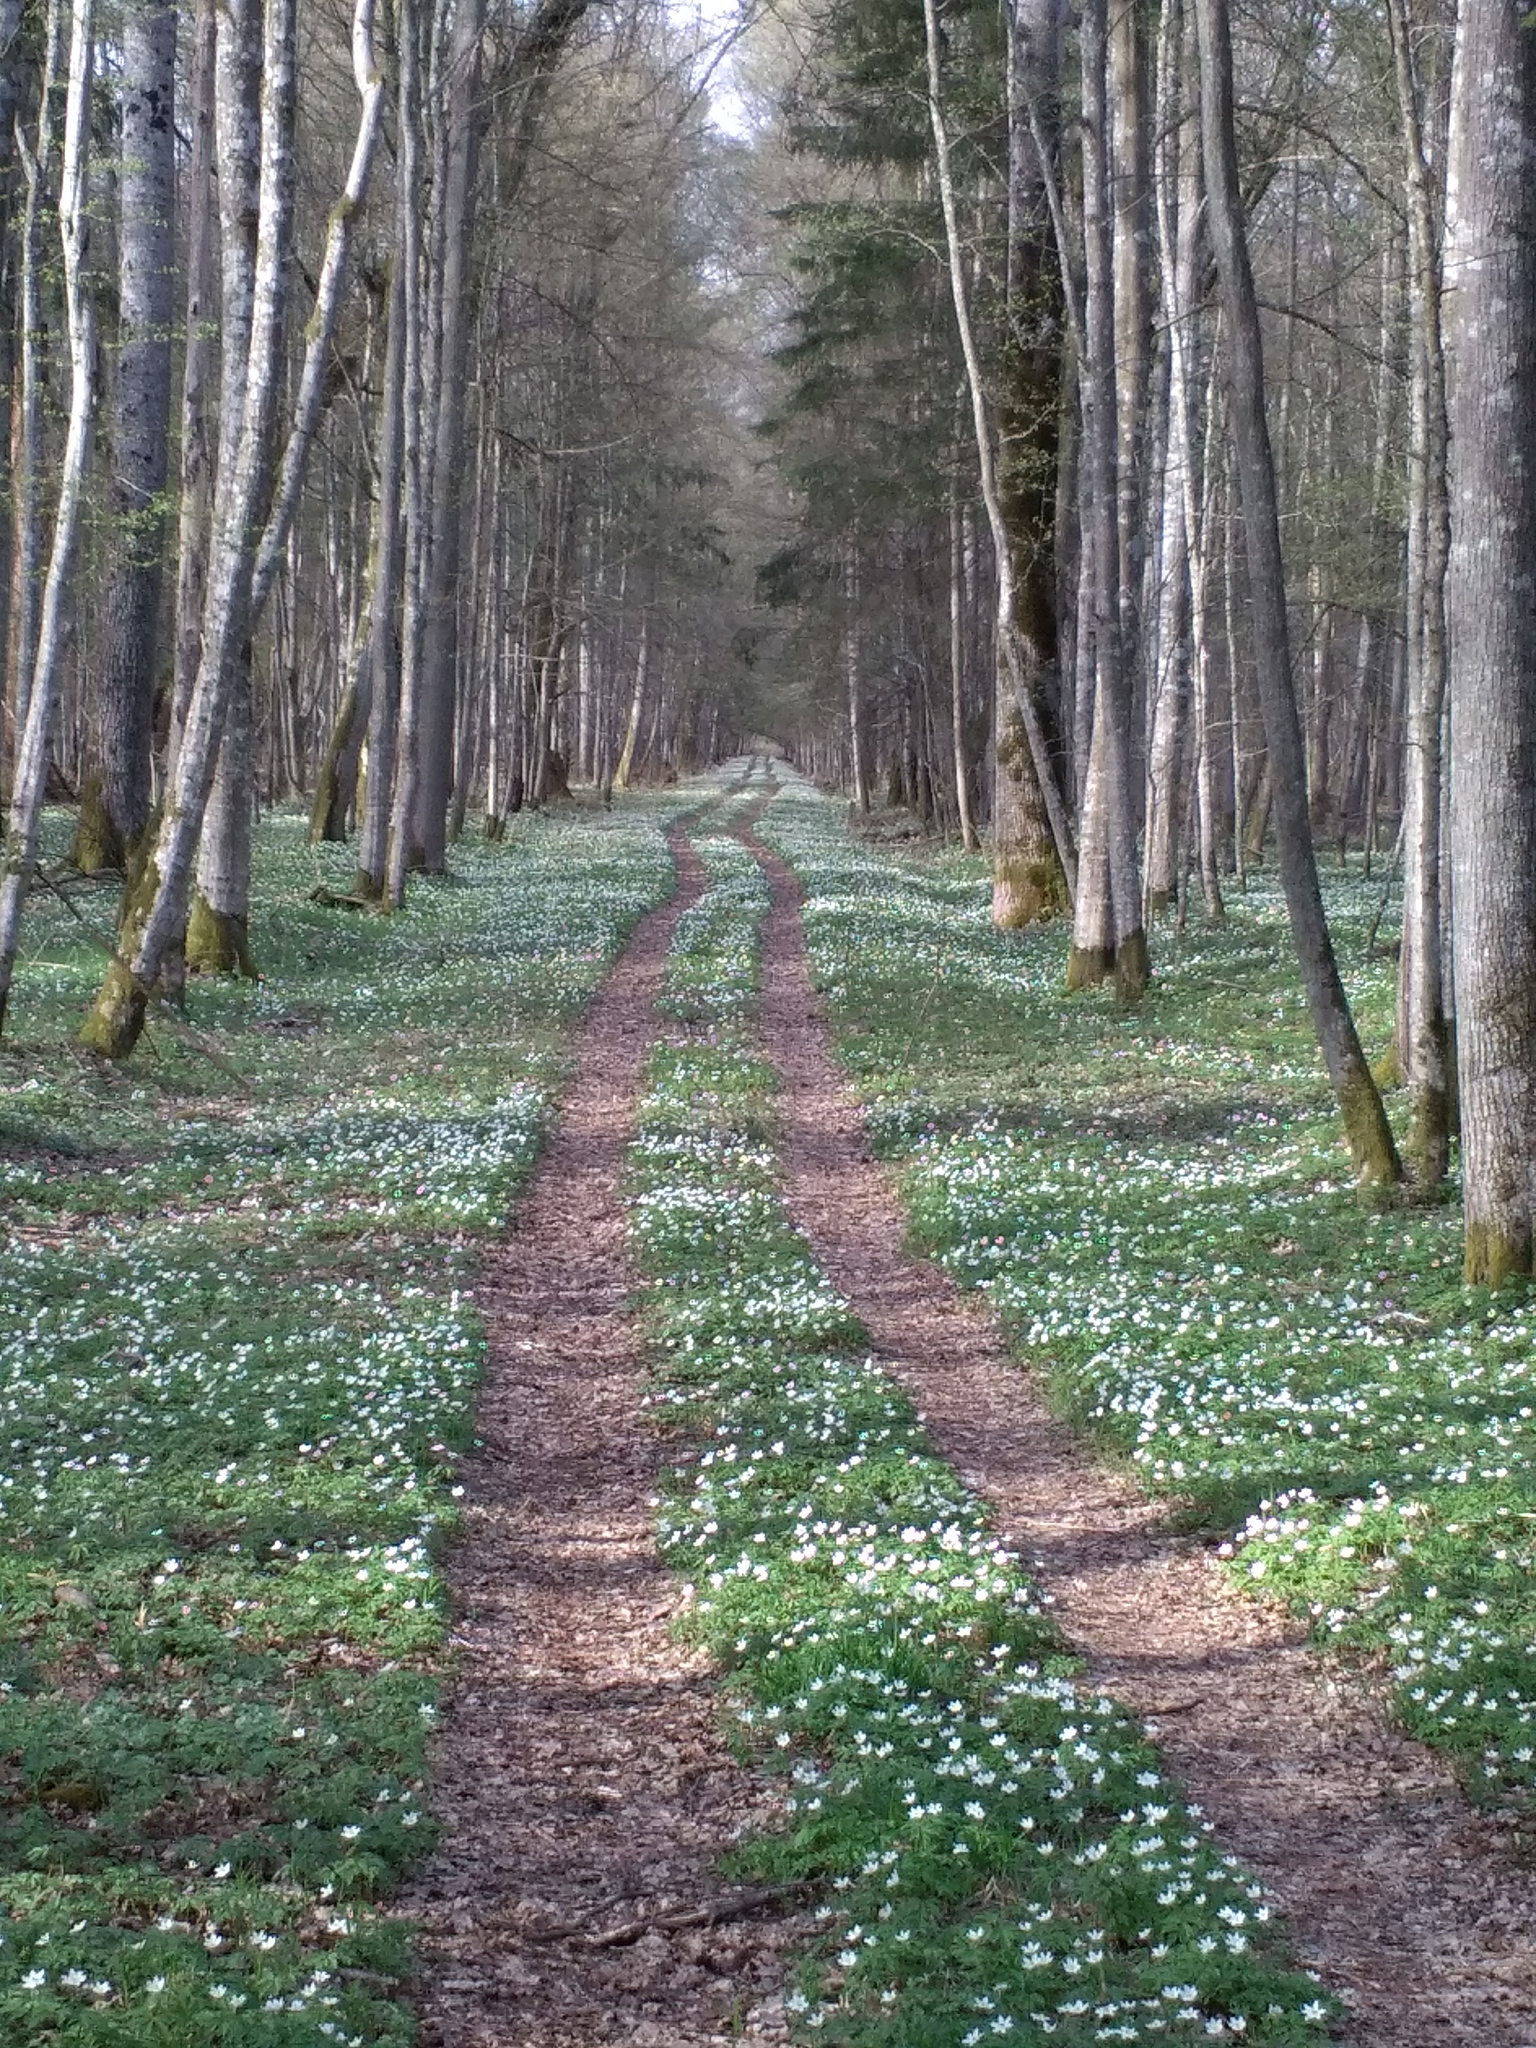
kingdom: Plantae
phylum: Tracheophyta
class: Magnoliopsida
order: Ranunculales
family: Ranunculaceae
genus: Anemone
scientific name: Anemone nemorosa
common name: Wood anemone
